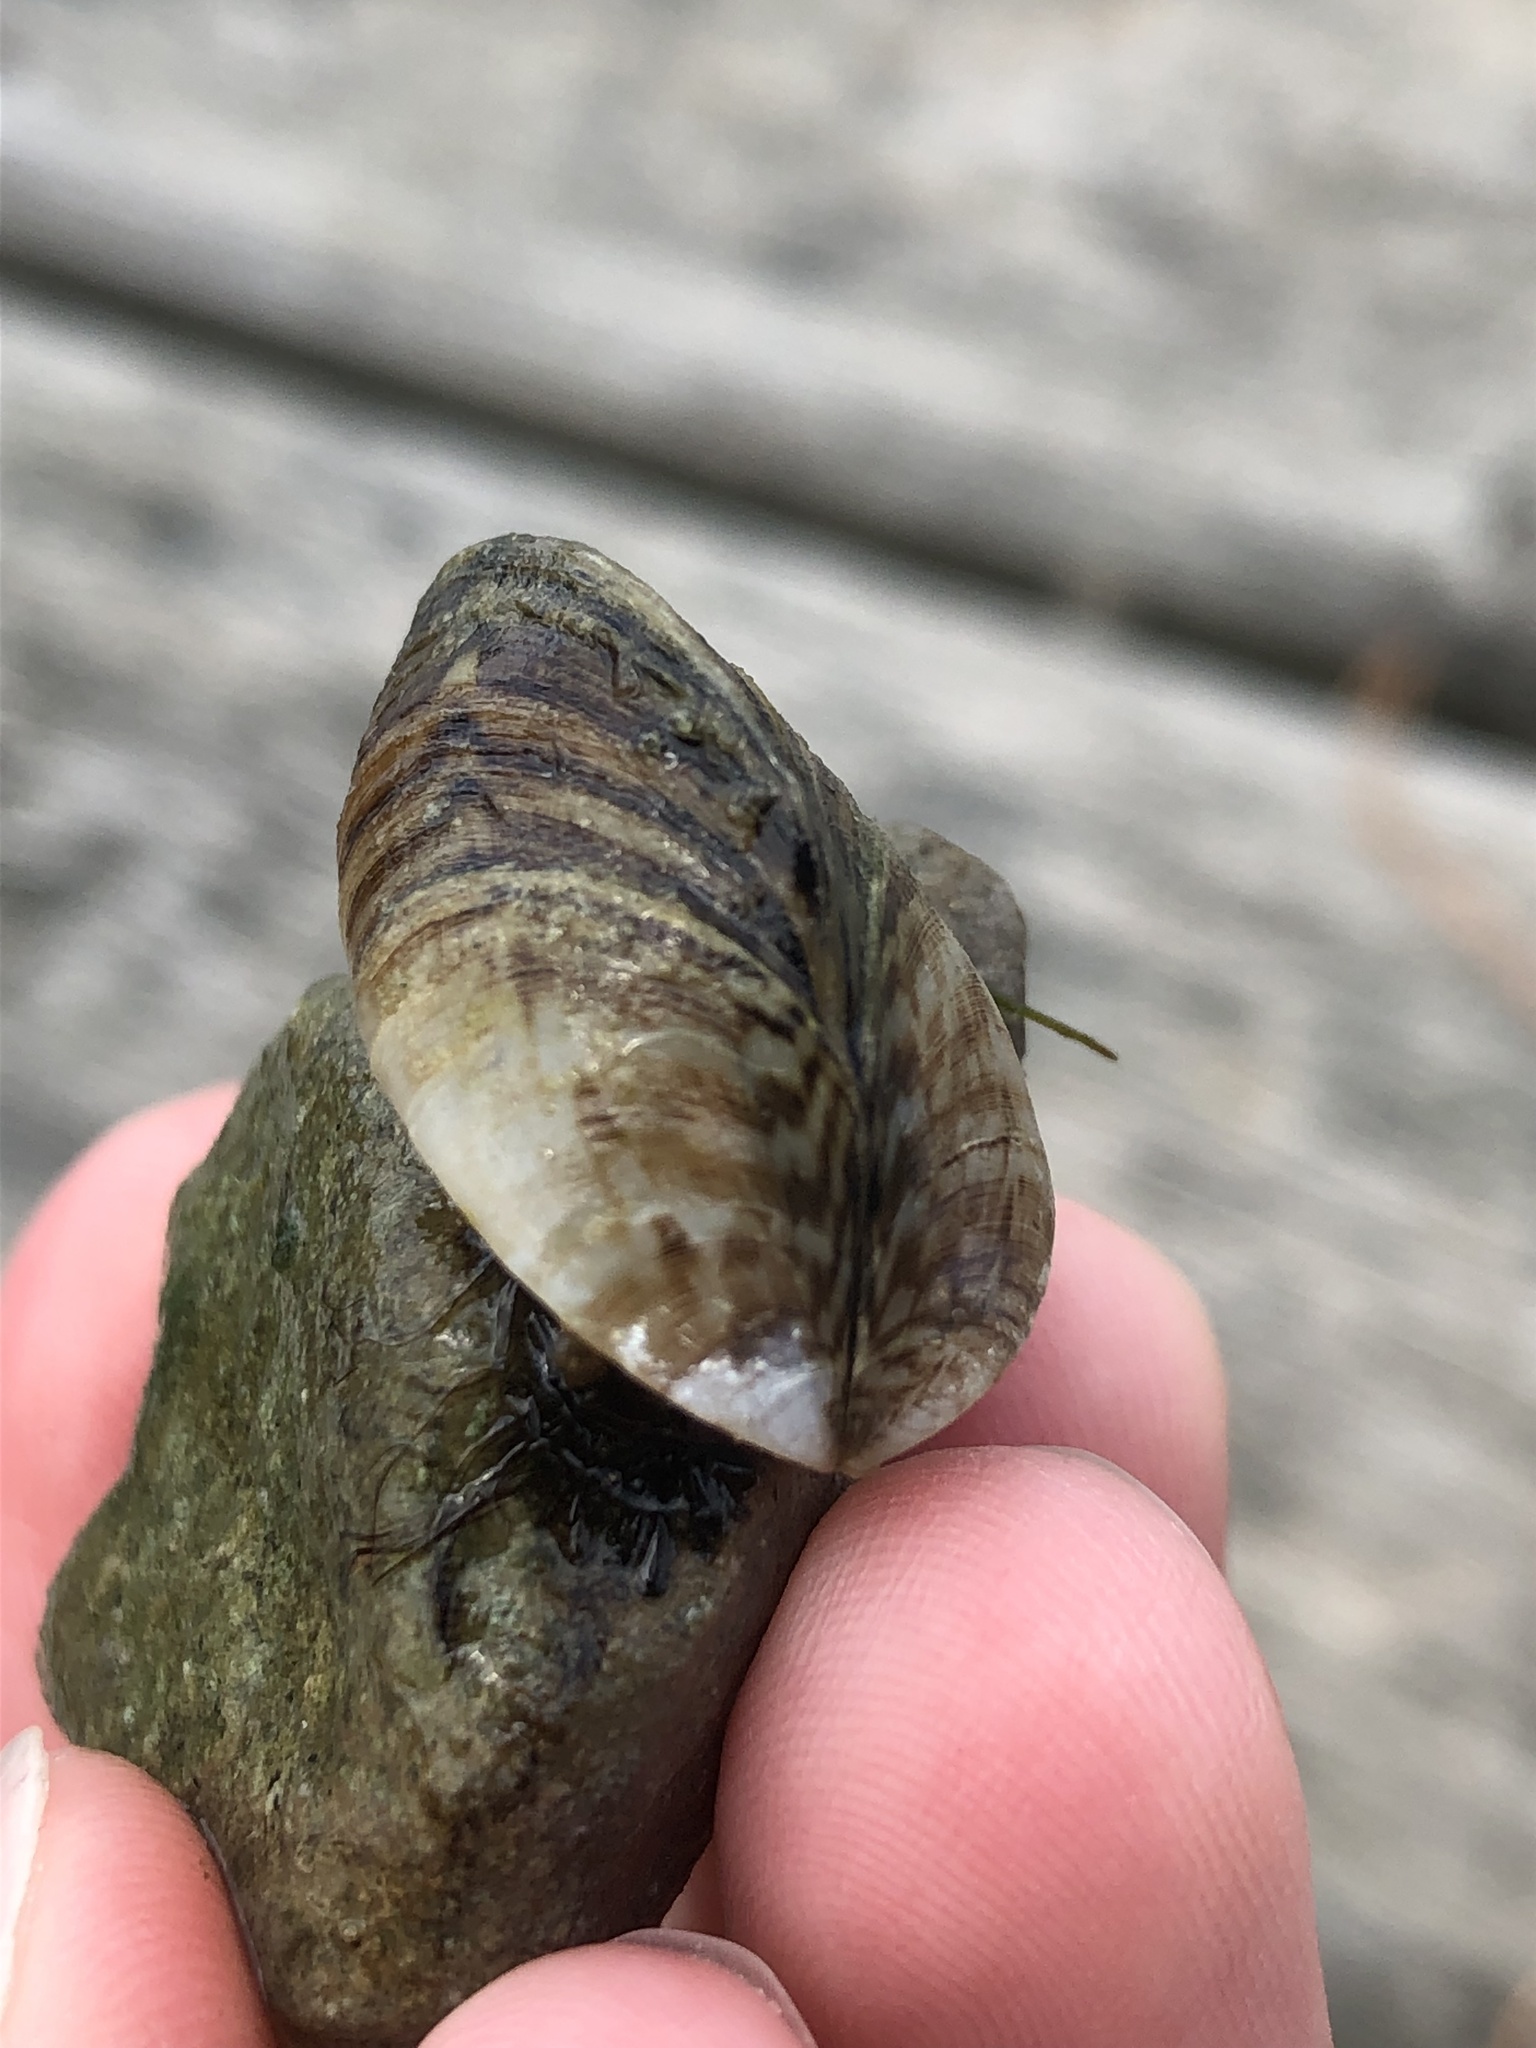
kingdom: Animalia
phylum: Mollusca
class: Bivalvia
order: Myida
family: Dreissenidae
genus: Dreissena
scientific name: Dreissena polymorpha
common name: Zebra mussel
